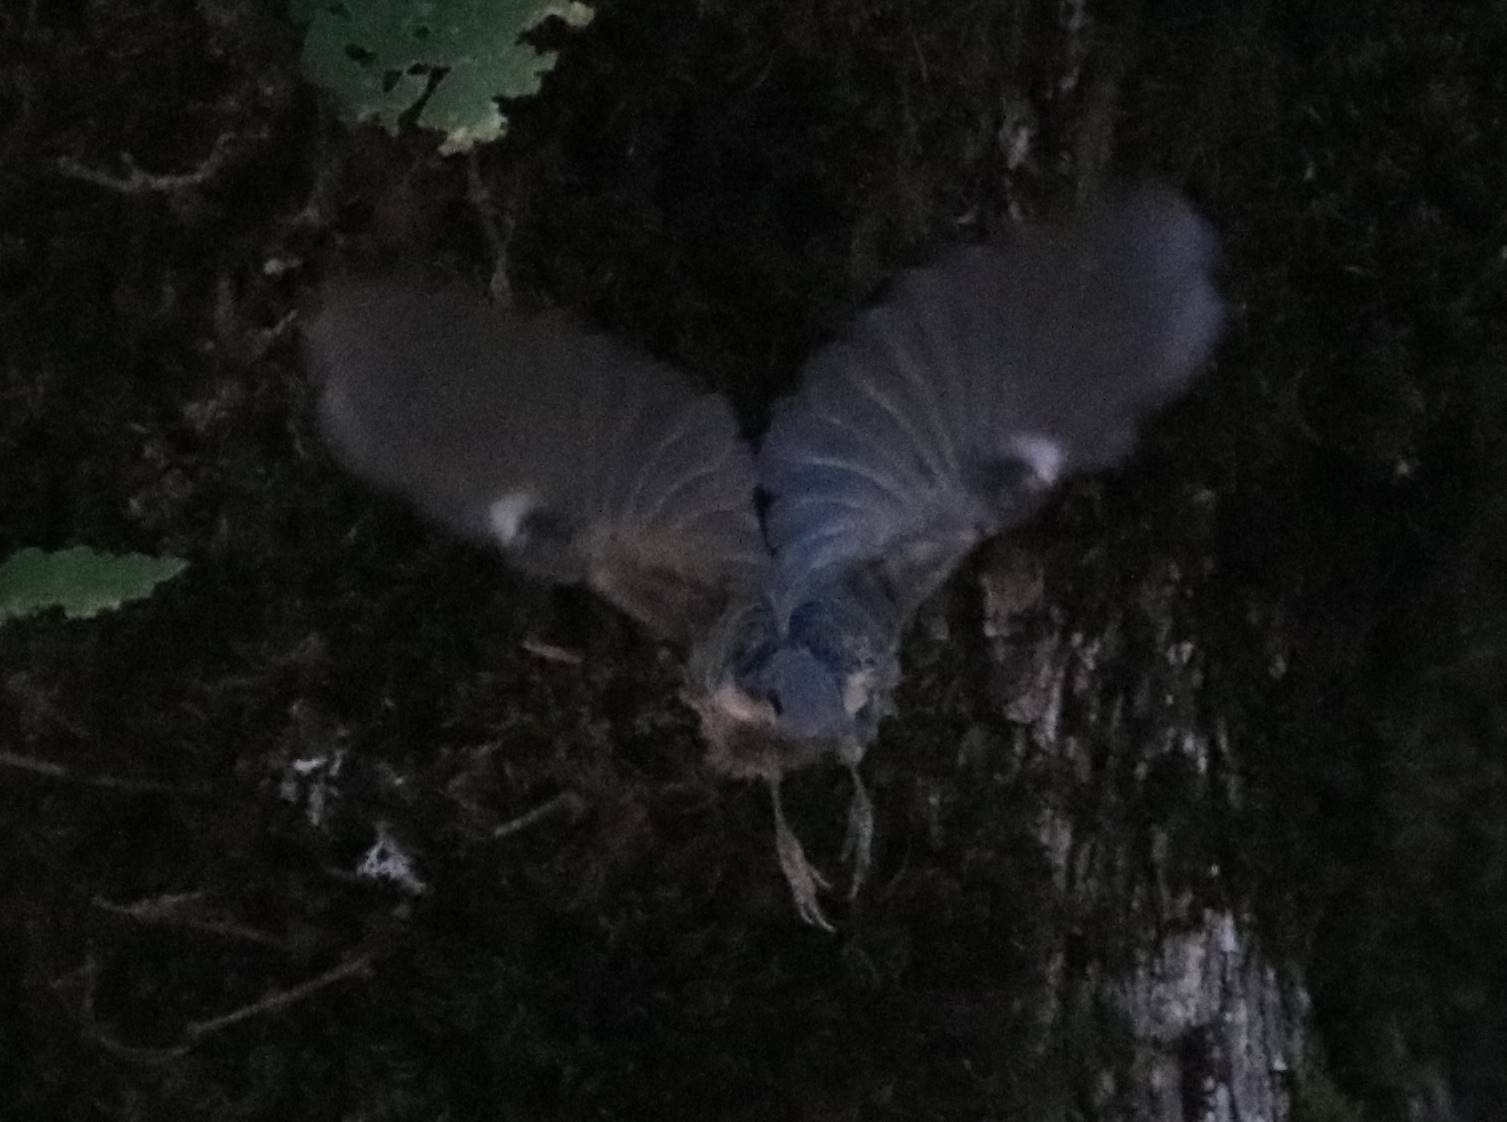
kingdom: Animalia
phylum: Chordata
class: Aves
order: Passeriformes
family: Sittidae
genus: Sitta
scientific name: Sitta ledanti
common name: Algerian nuthatch
